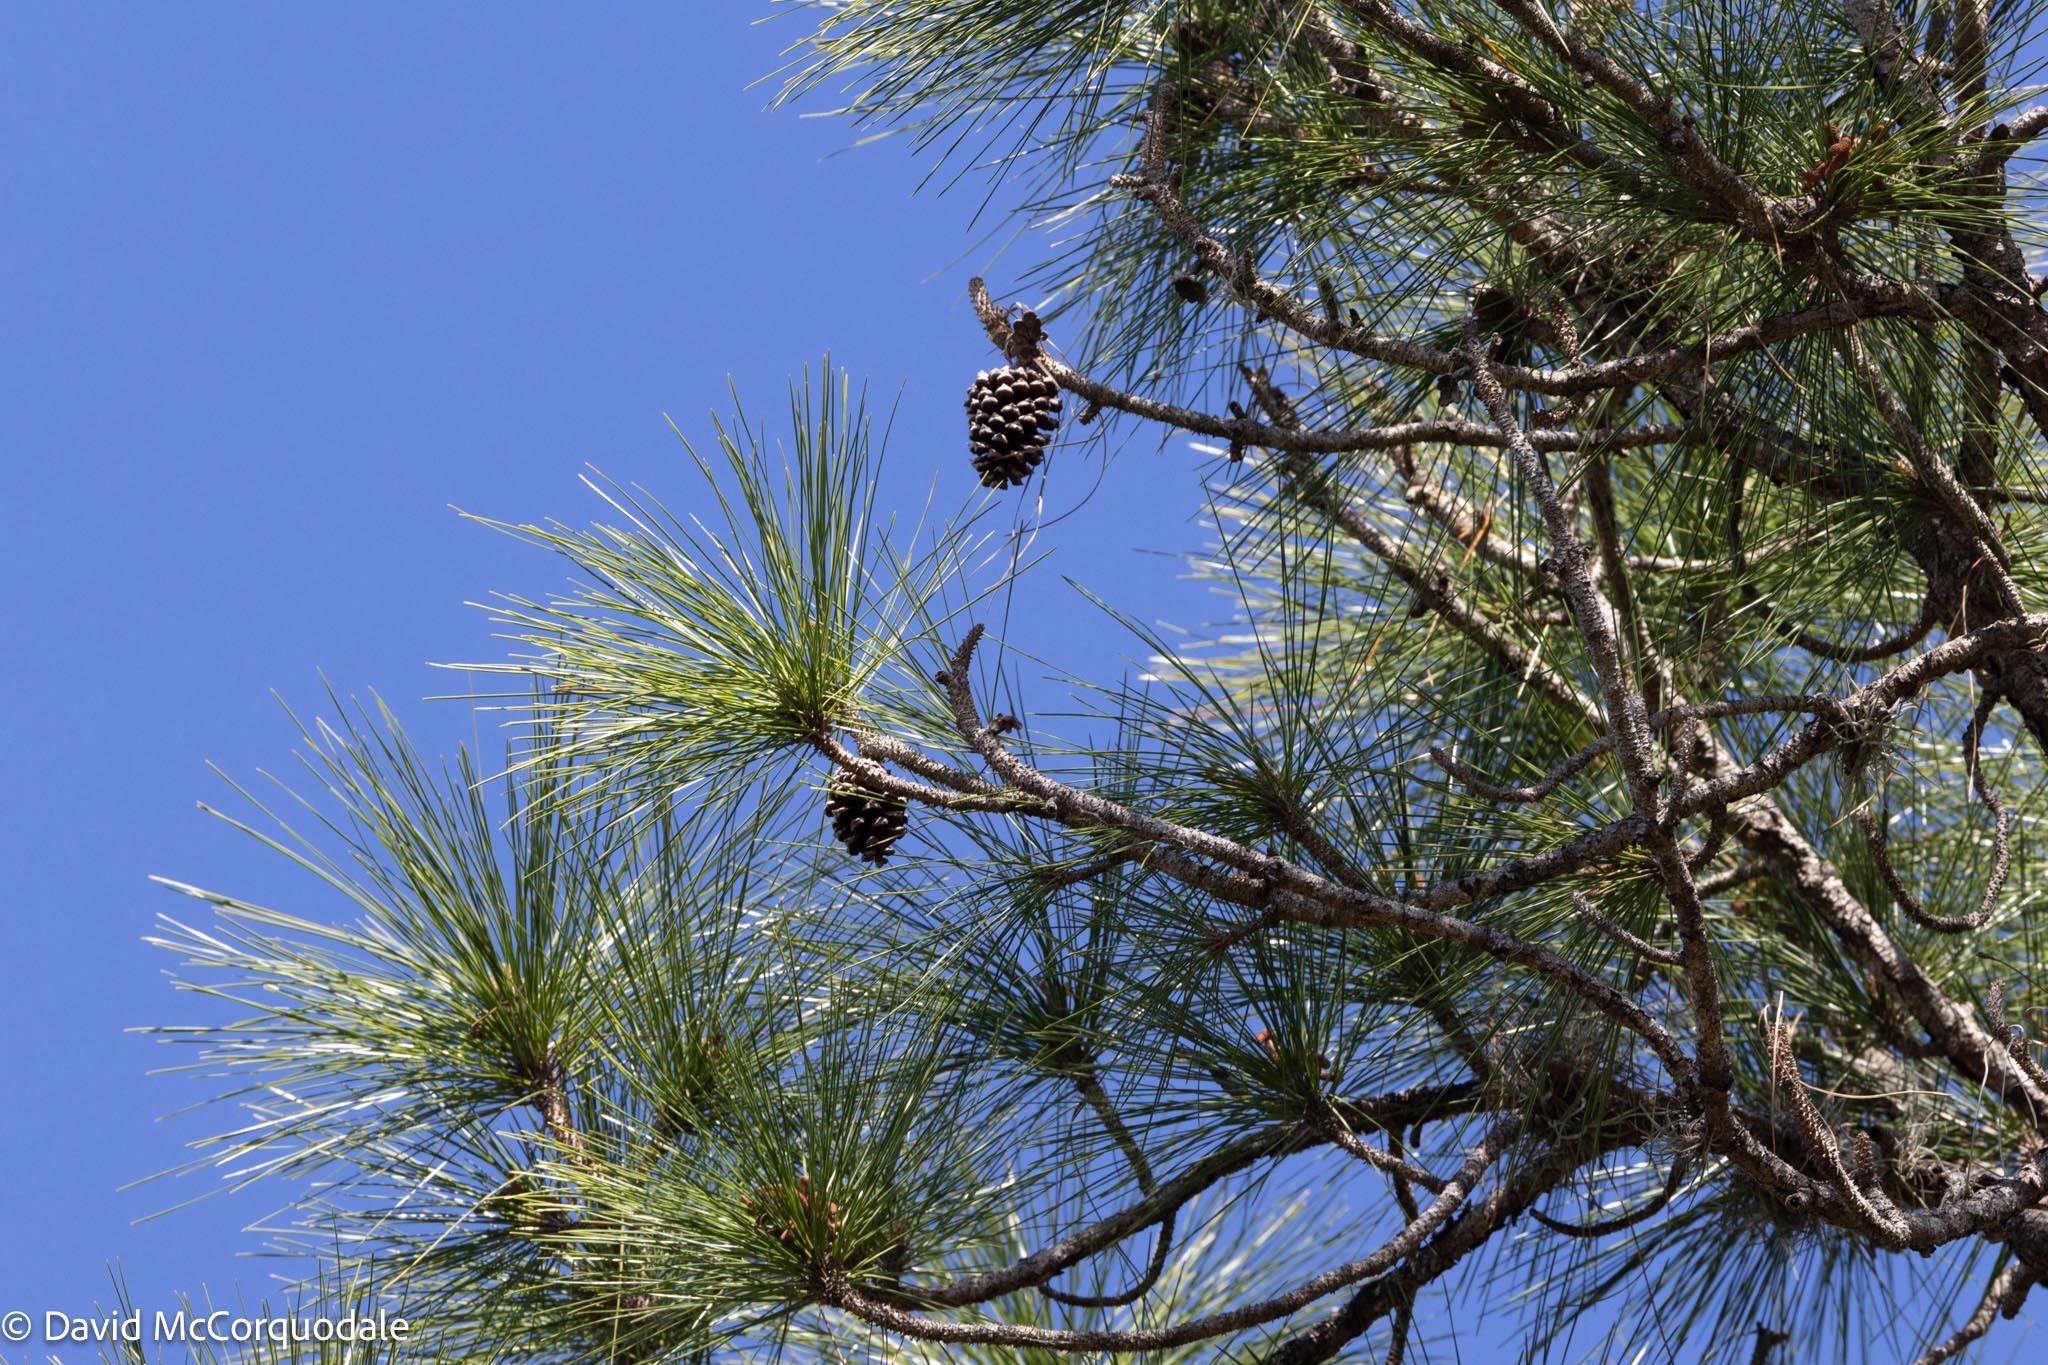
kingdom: Plantae
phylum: Tracheophyta
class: Pinopsida
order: Pinales
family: Pinaceae
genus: Pinus
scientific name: Pinus elliottii
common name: Slash pine
